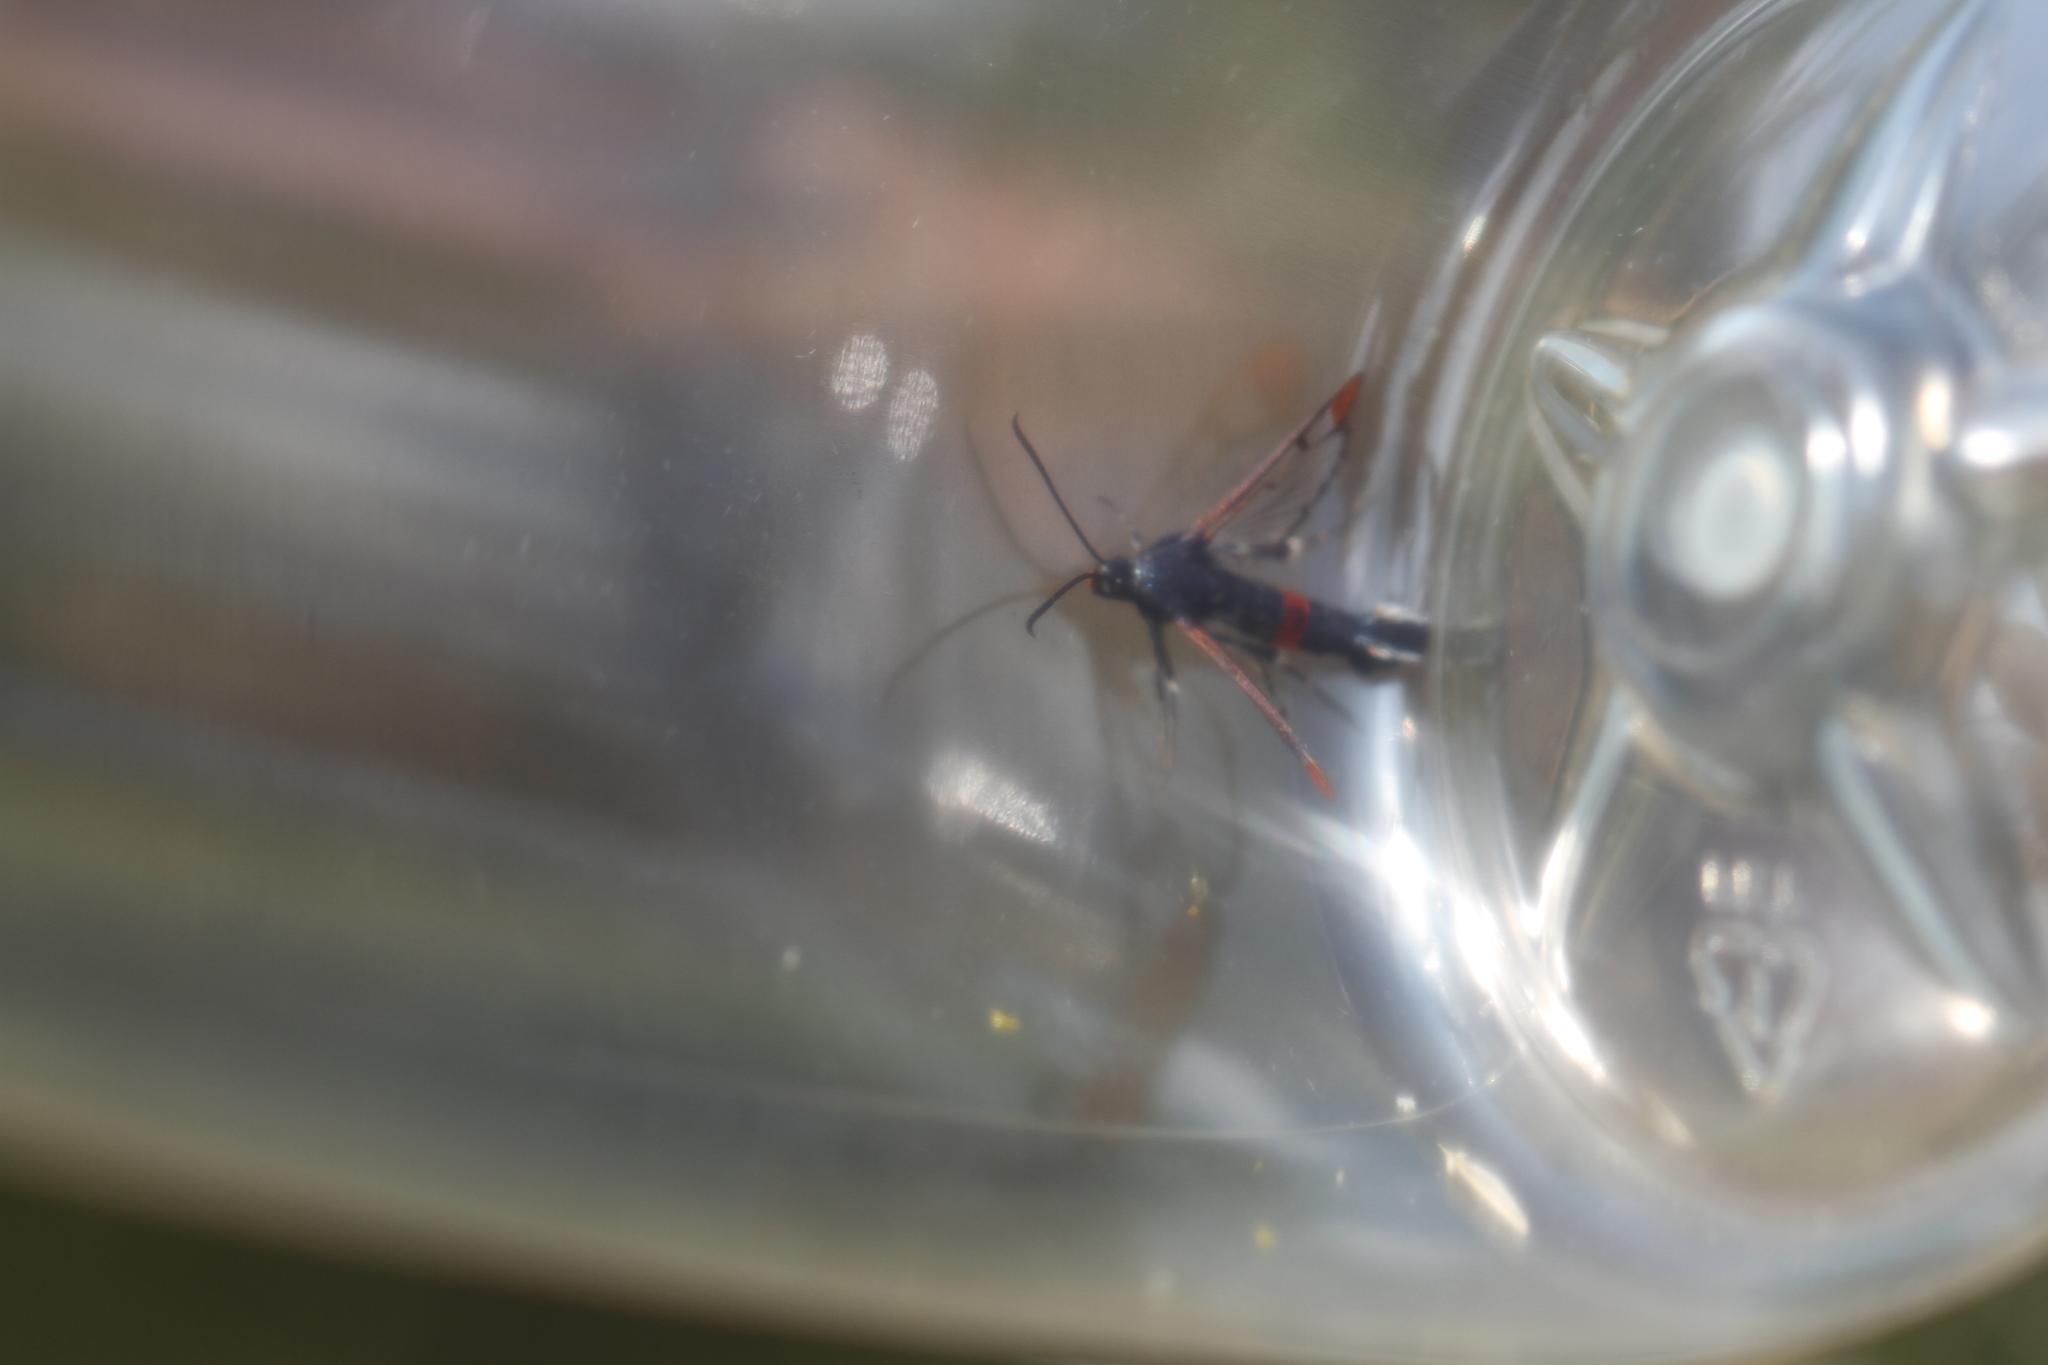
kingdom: Animalia
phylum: Arthropoda
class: Insecta
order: Lepidoptera
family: Sesiidae
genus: Synanthedon
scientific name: Synanthedon formicaeformis
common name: Red-tipped clearwing
